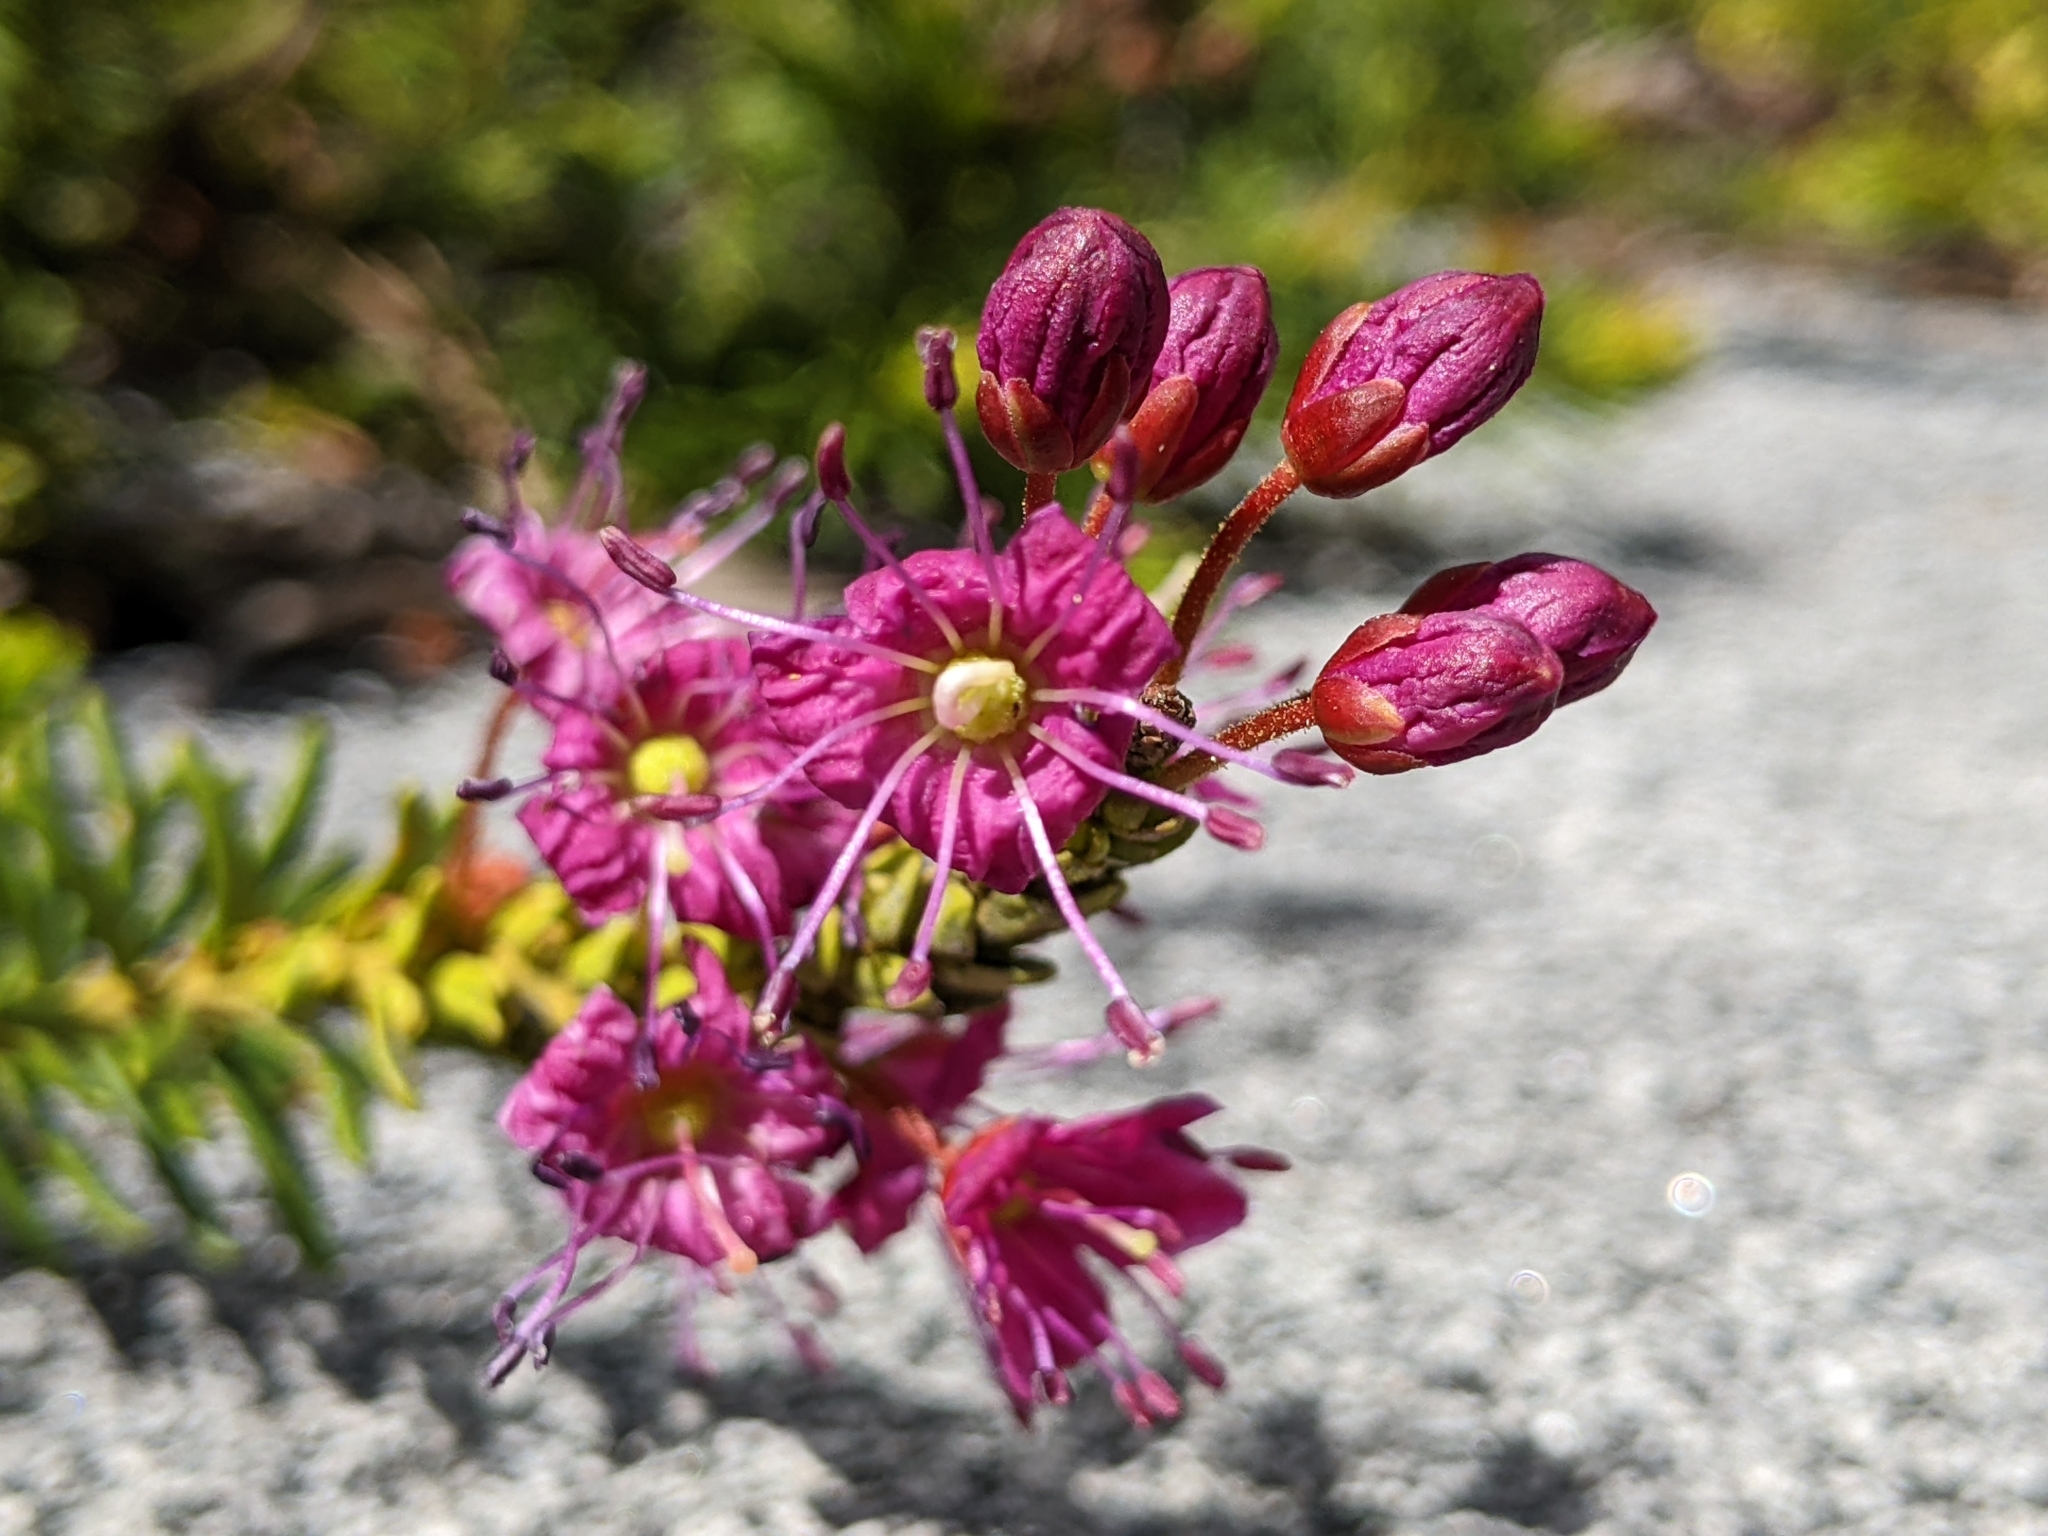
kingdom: Plantae
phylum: Tracheophyta
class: Magnoliopsida
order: Ericales
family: Ericaceae
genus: Phyllodoce
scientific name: Phyllodoce breweri
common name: Brewer's mountain-heather
